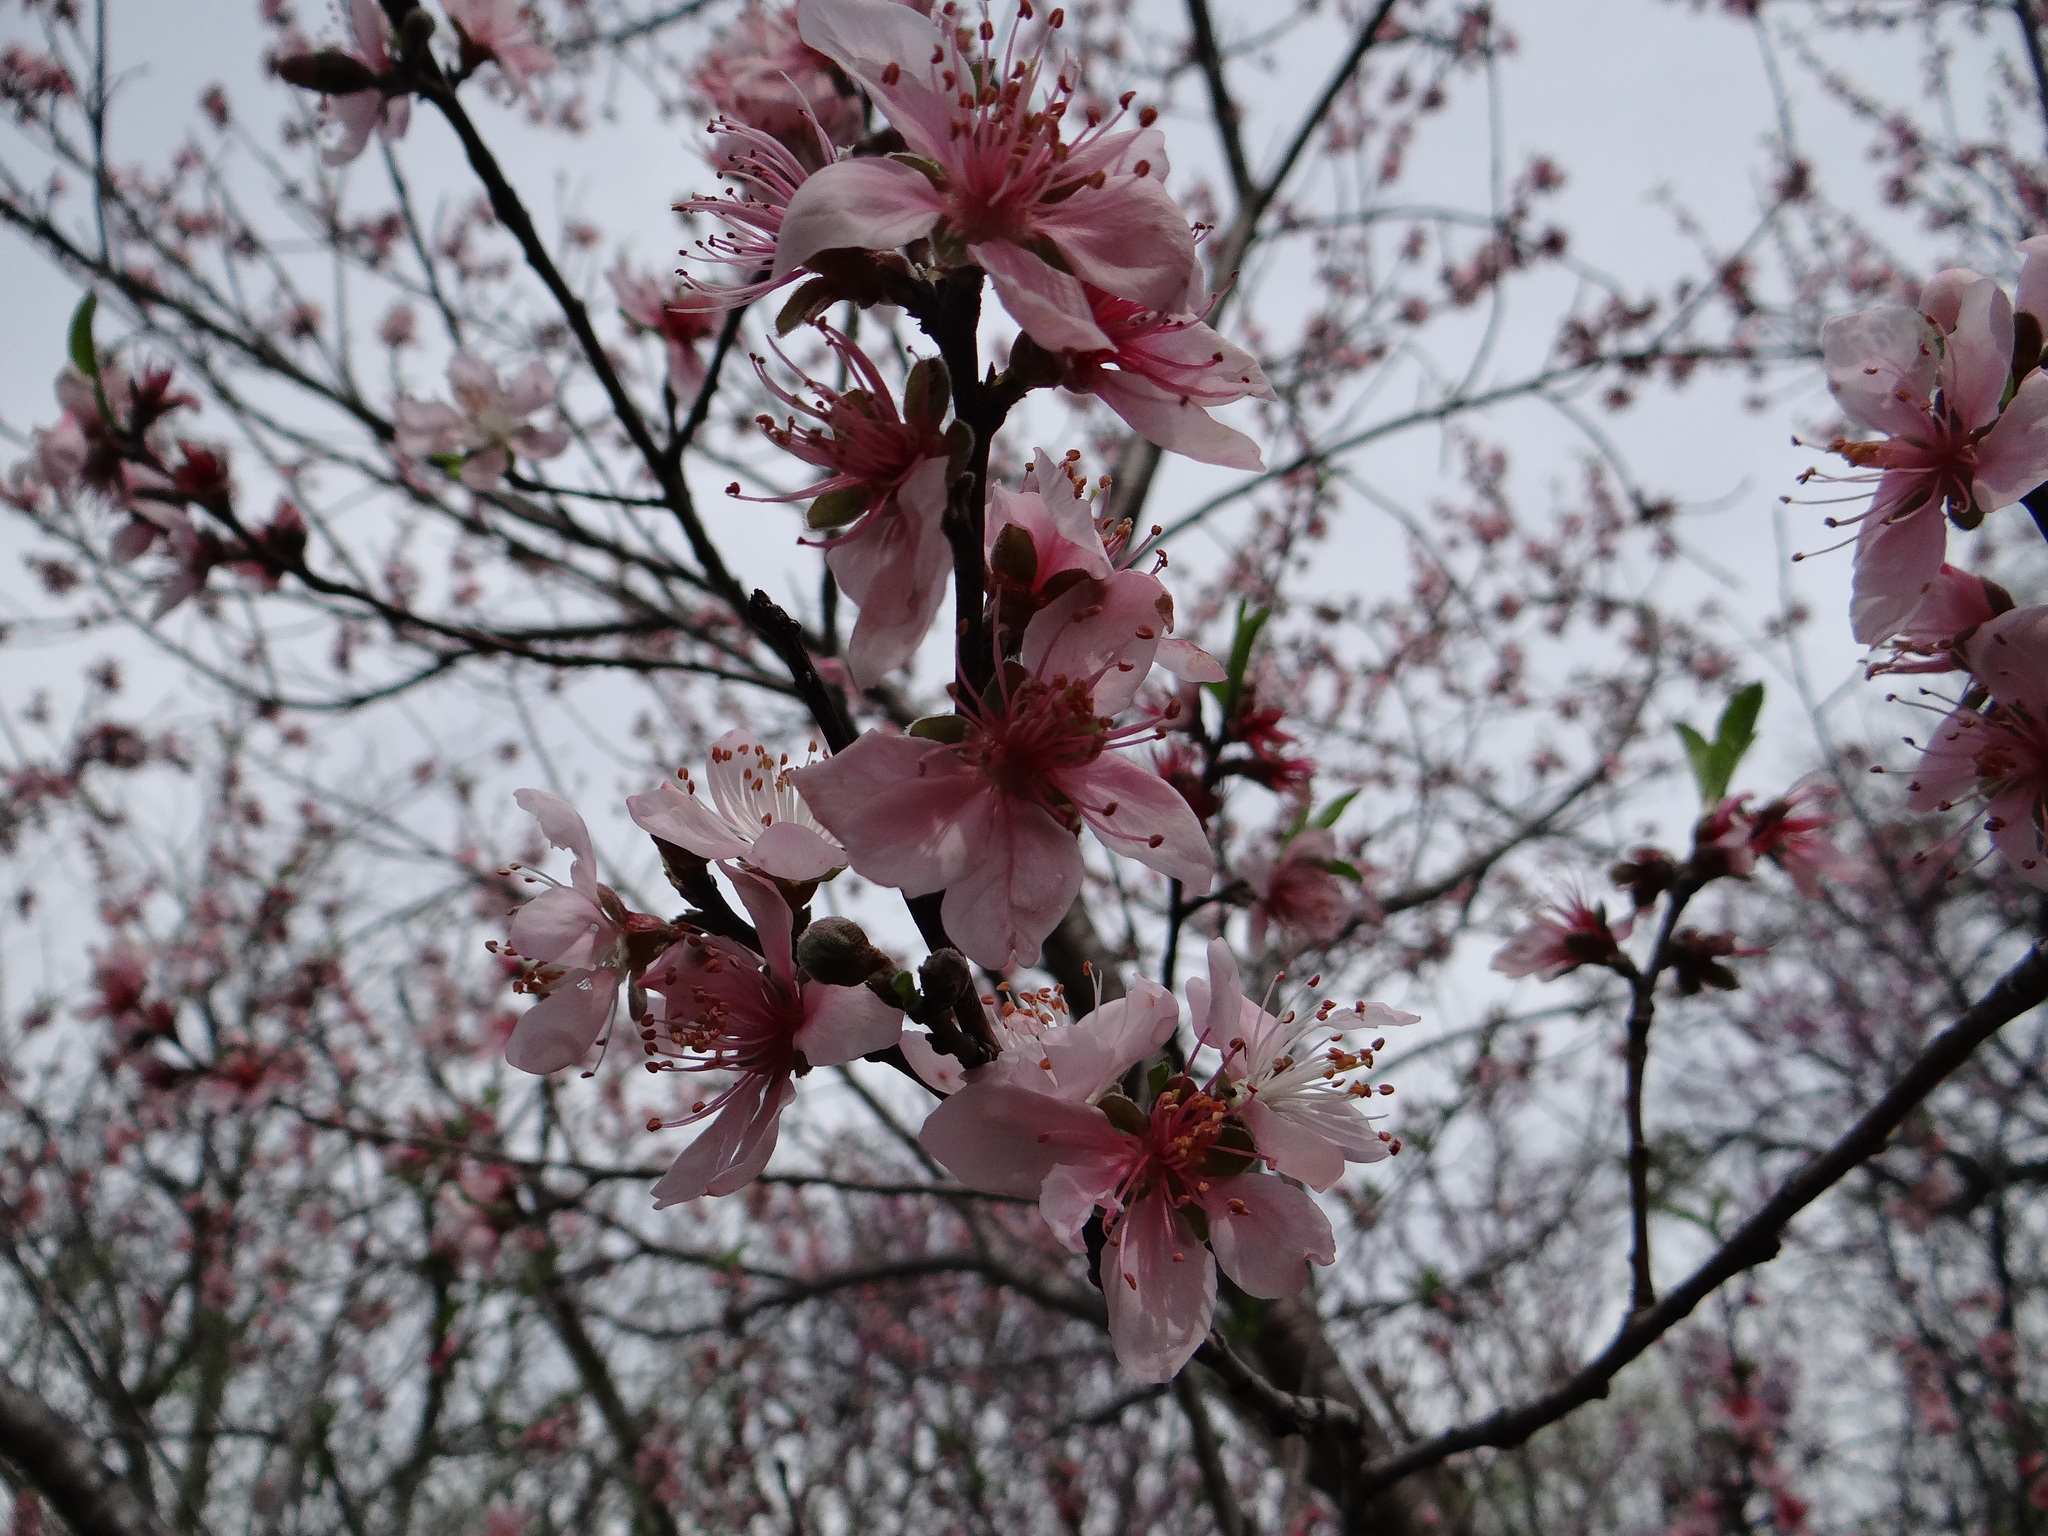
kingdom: Plantae
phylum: Tracheophyta
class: Magnoliopsida
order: Rosales
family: Rosaceae
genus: Prunus
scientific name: Prunus persica
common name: Peach
